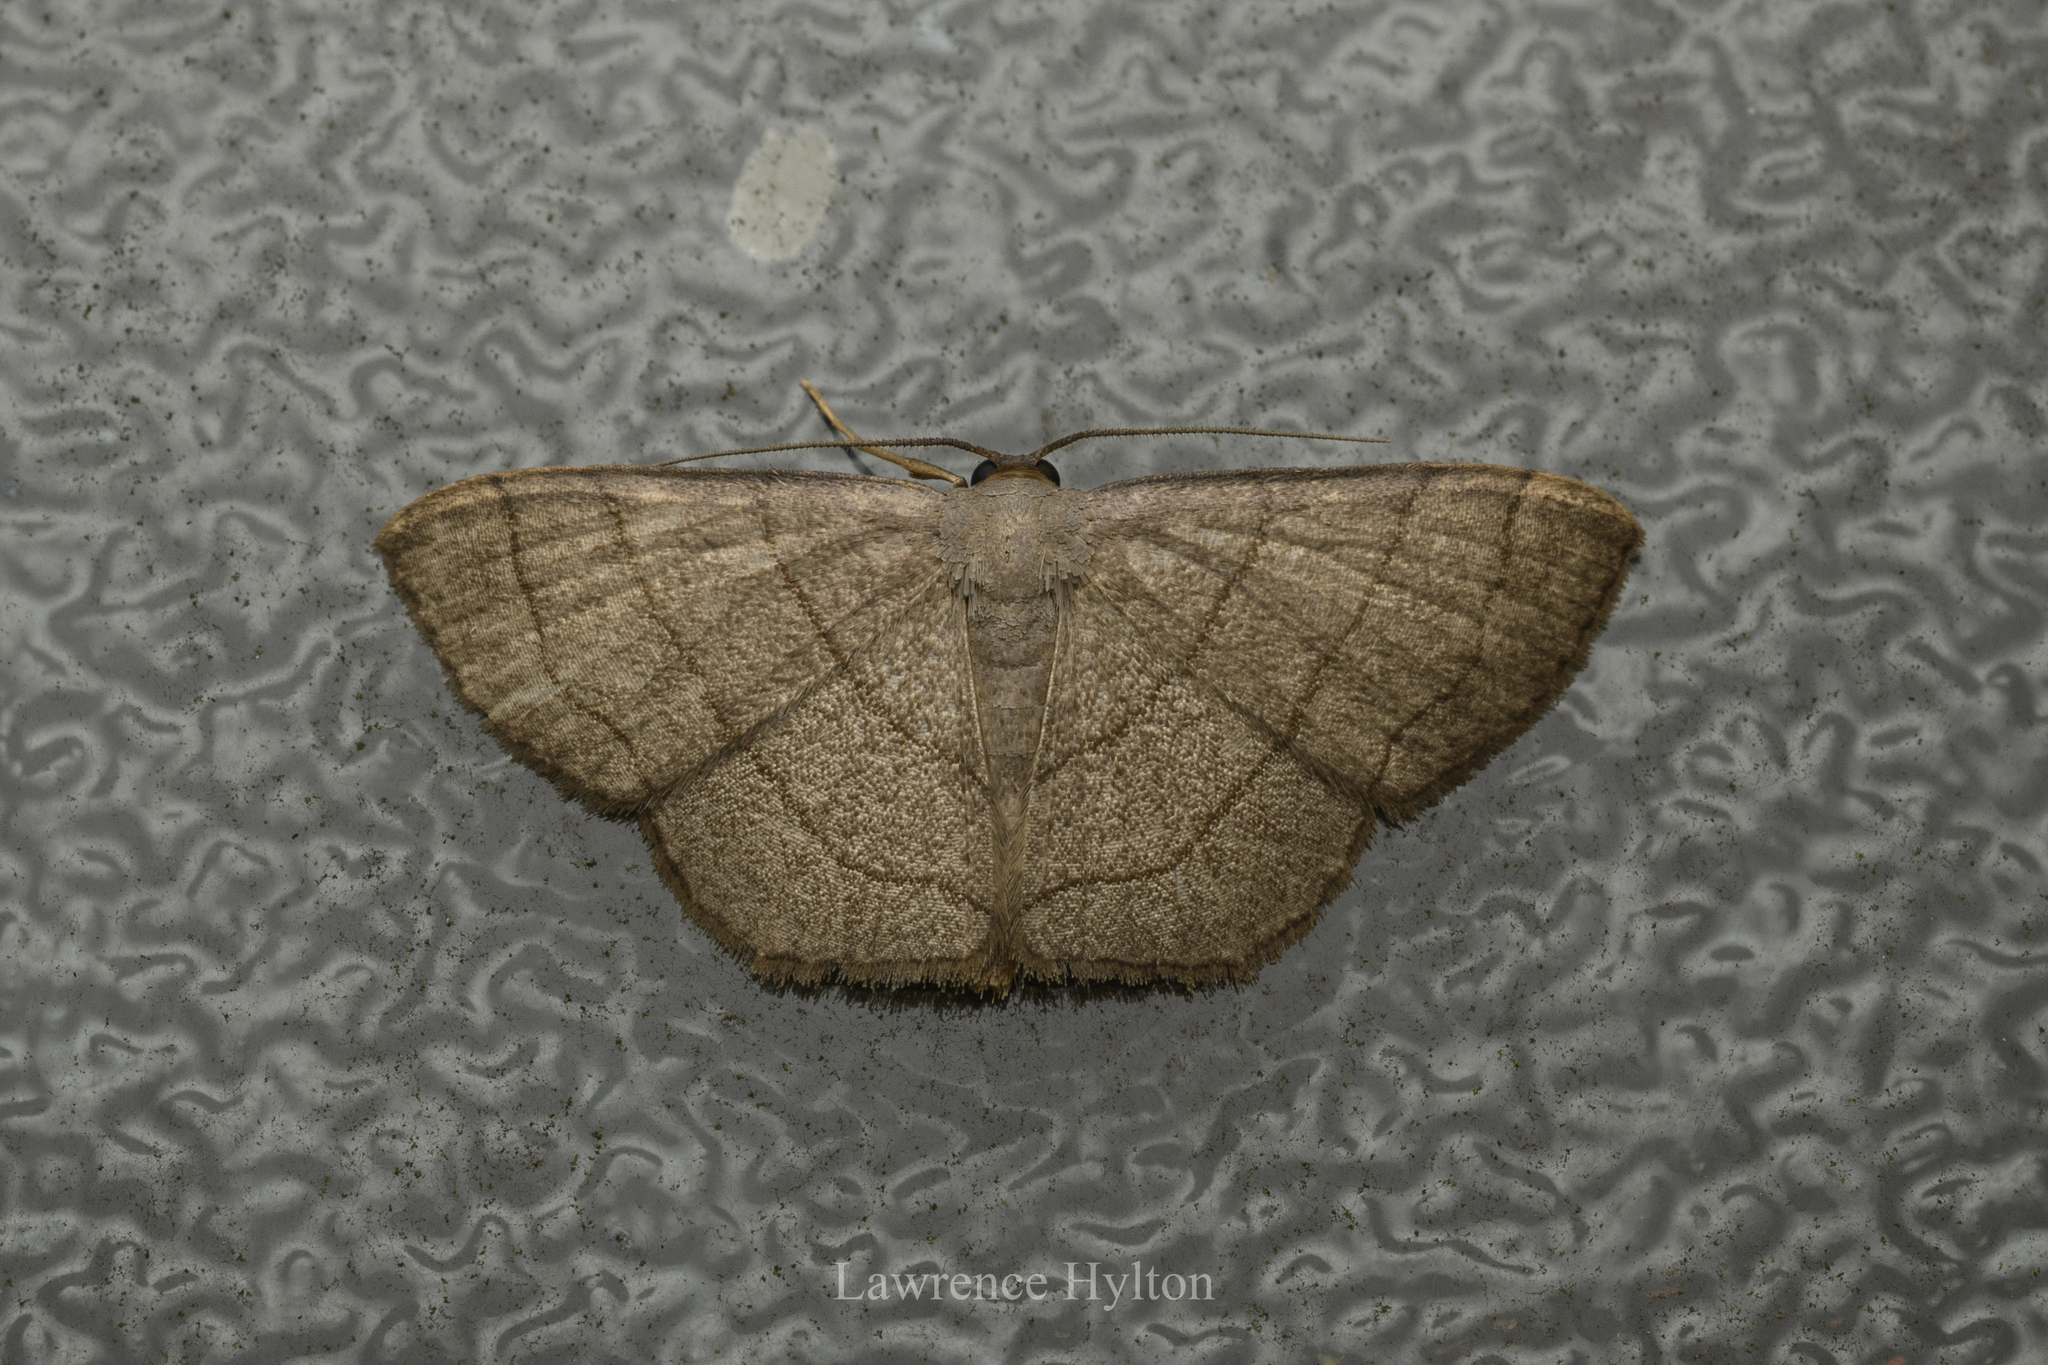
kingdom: Animalia
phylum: Arthropoda
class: Insecta
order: Lepidoptera
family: Geometridae
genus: Scopula
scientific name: Scopula mecysma
